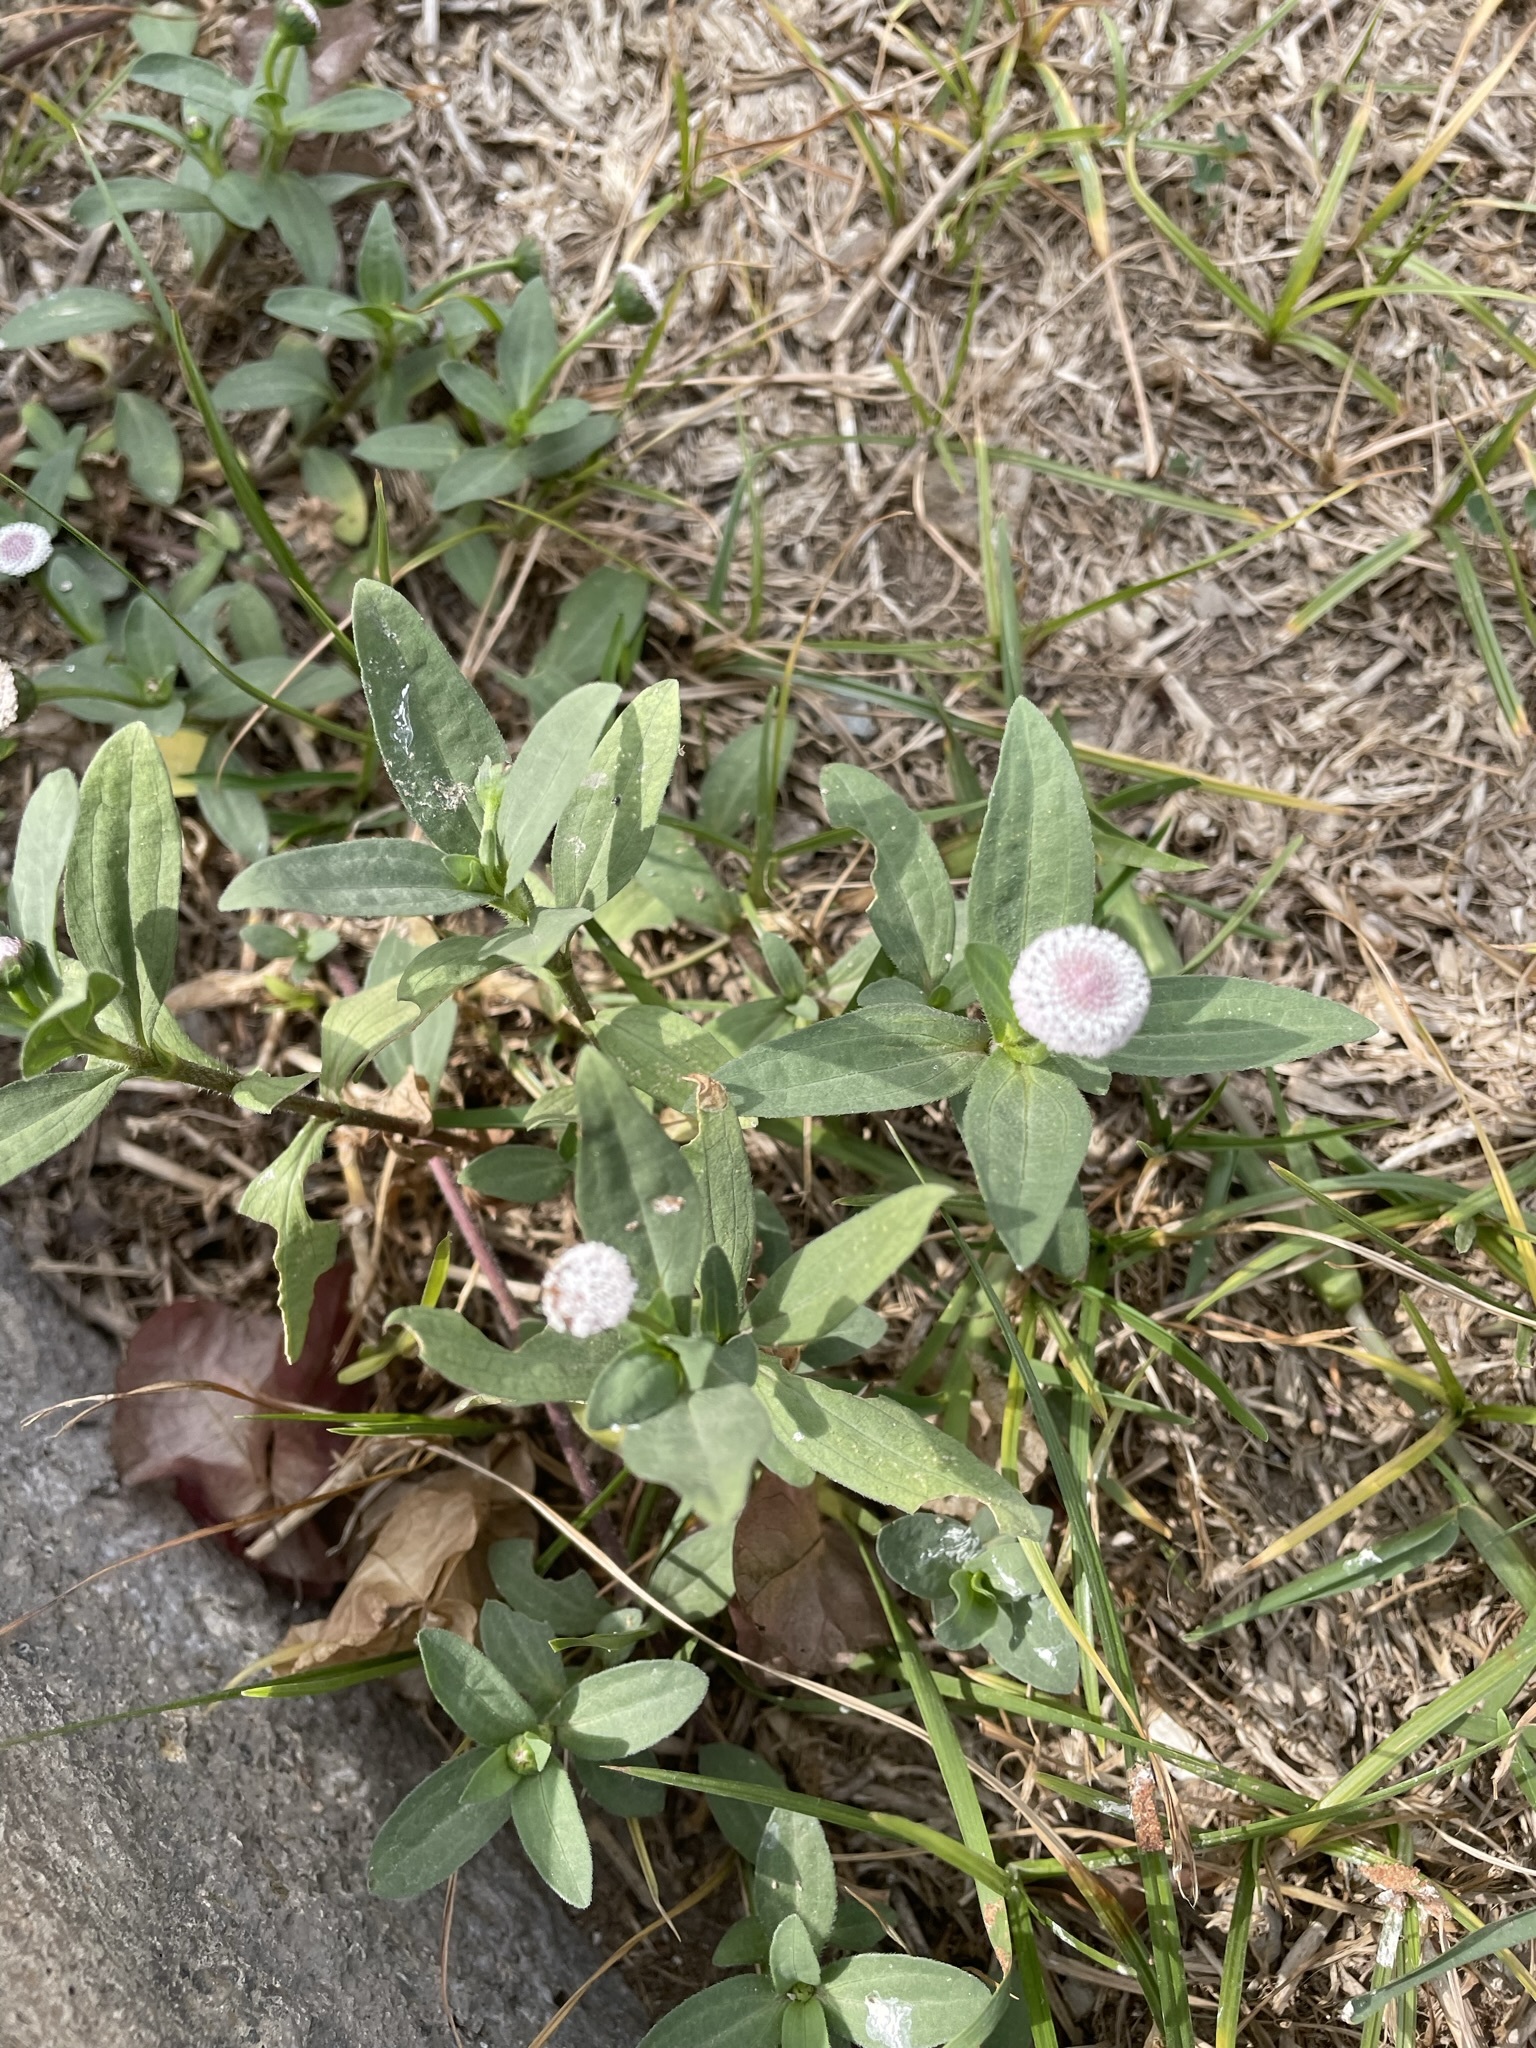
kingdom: Plantae
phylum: Tracheophyta
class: Magnoliopsida
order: Asterales
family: Asteraceae
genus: Spilanthes
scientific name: Spilanthes leiocarpa
